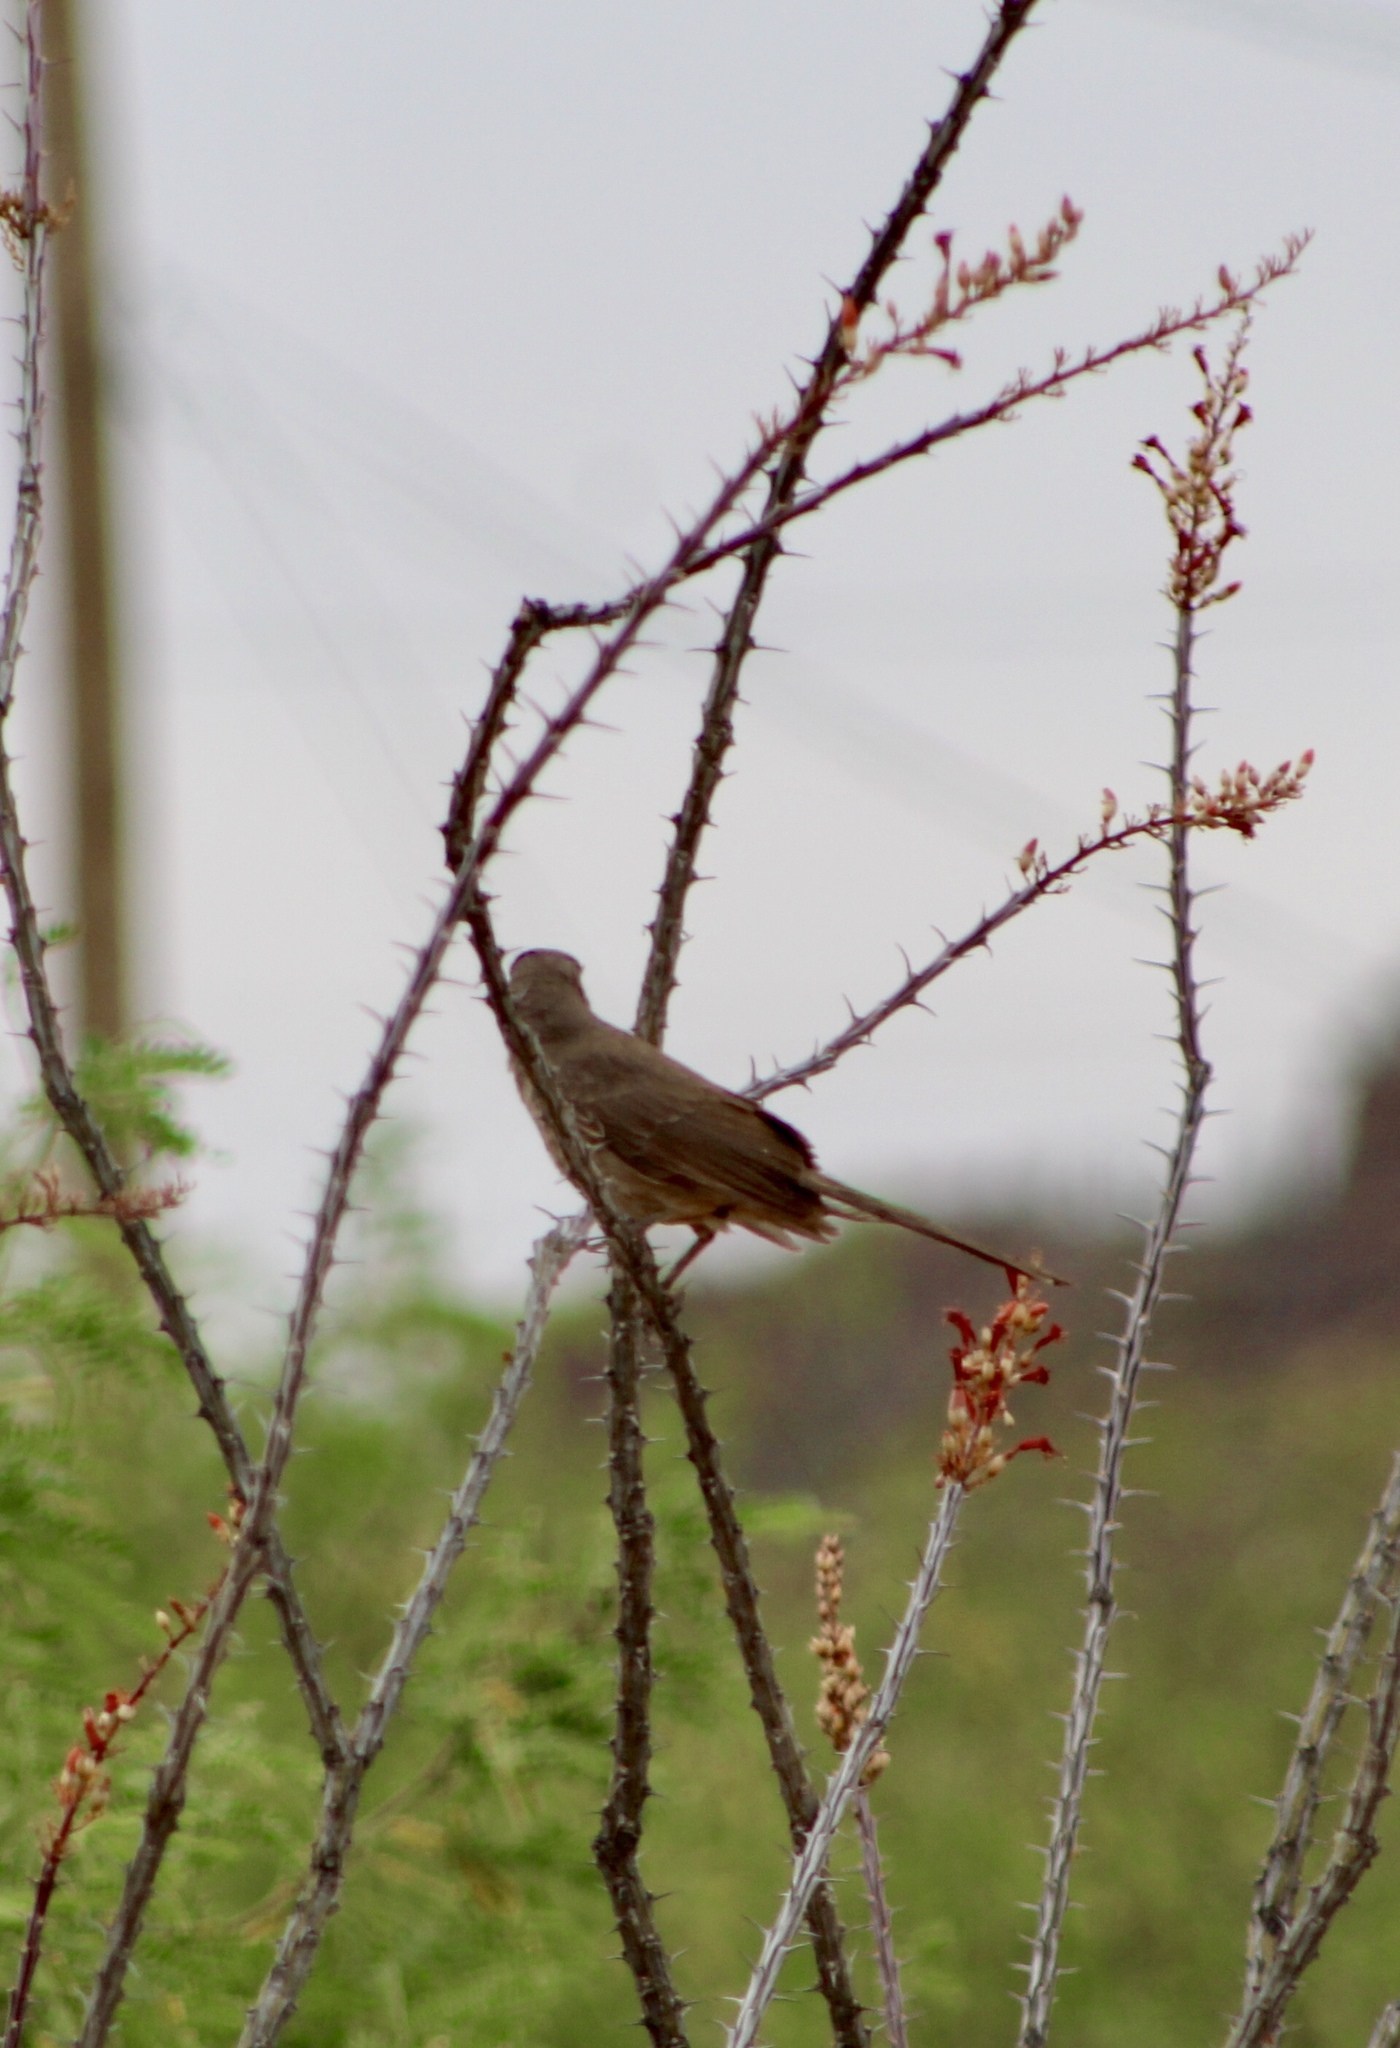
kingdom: Animalia
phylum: Chordata
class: Aves
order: Passeriformes
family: Mimidae
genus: Toxostoma
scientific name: Toxostoma curvirostre
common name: Curve-billed thrasher
